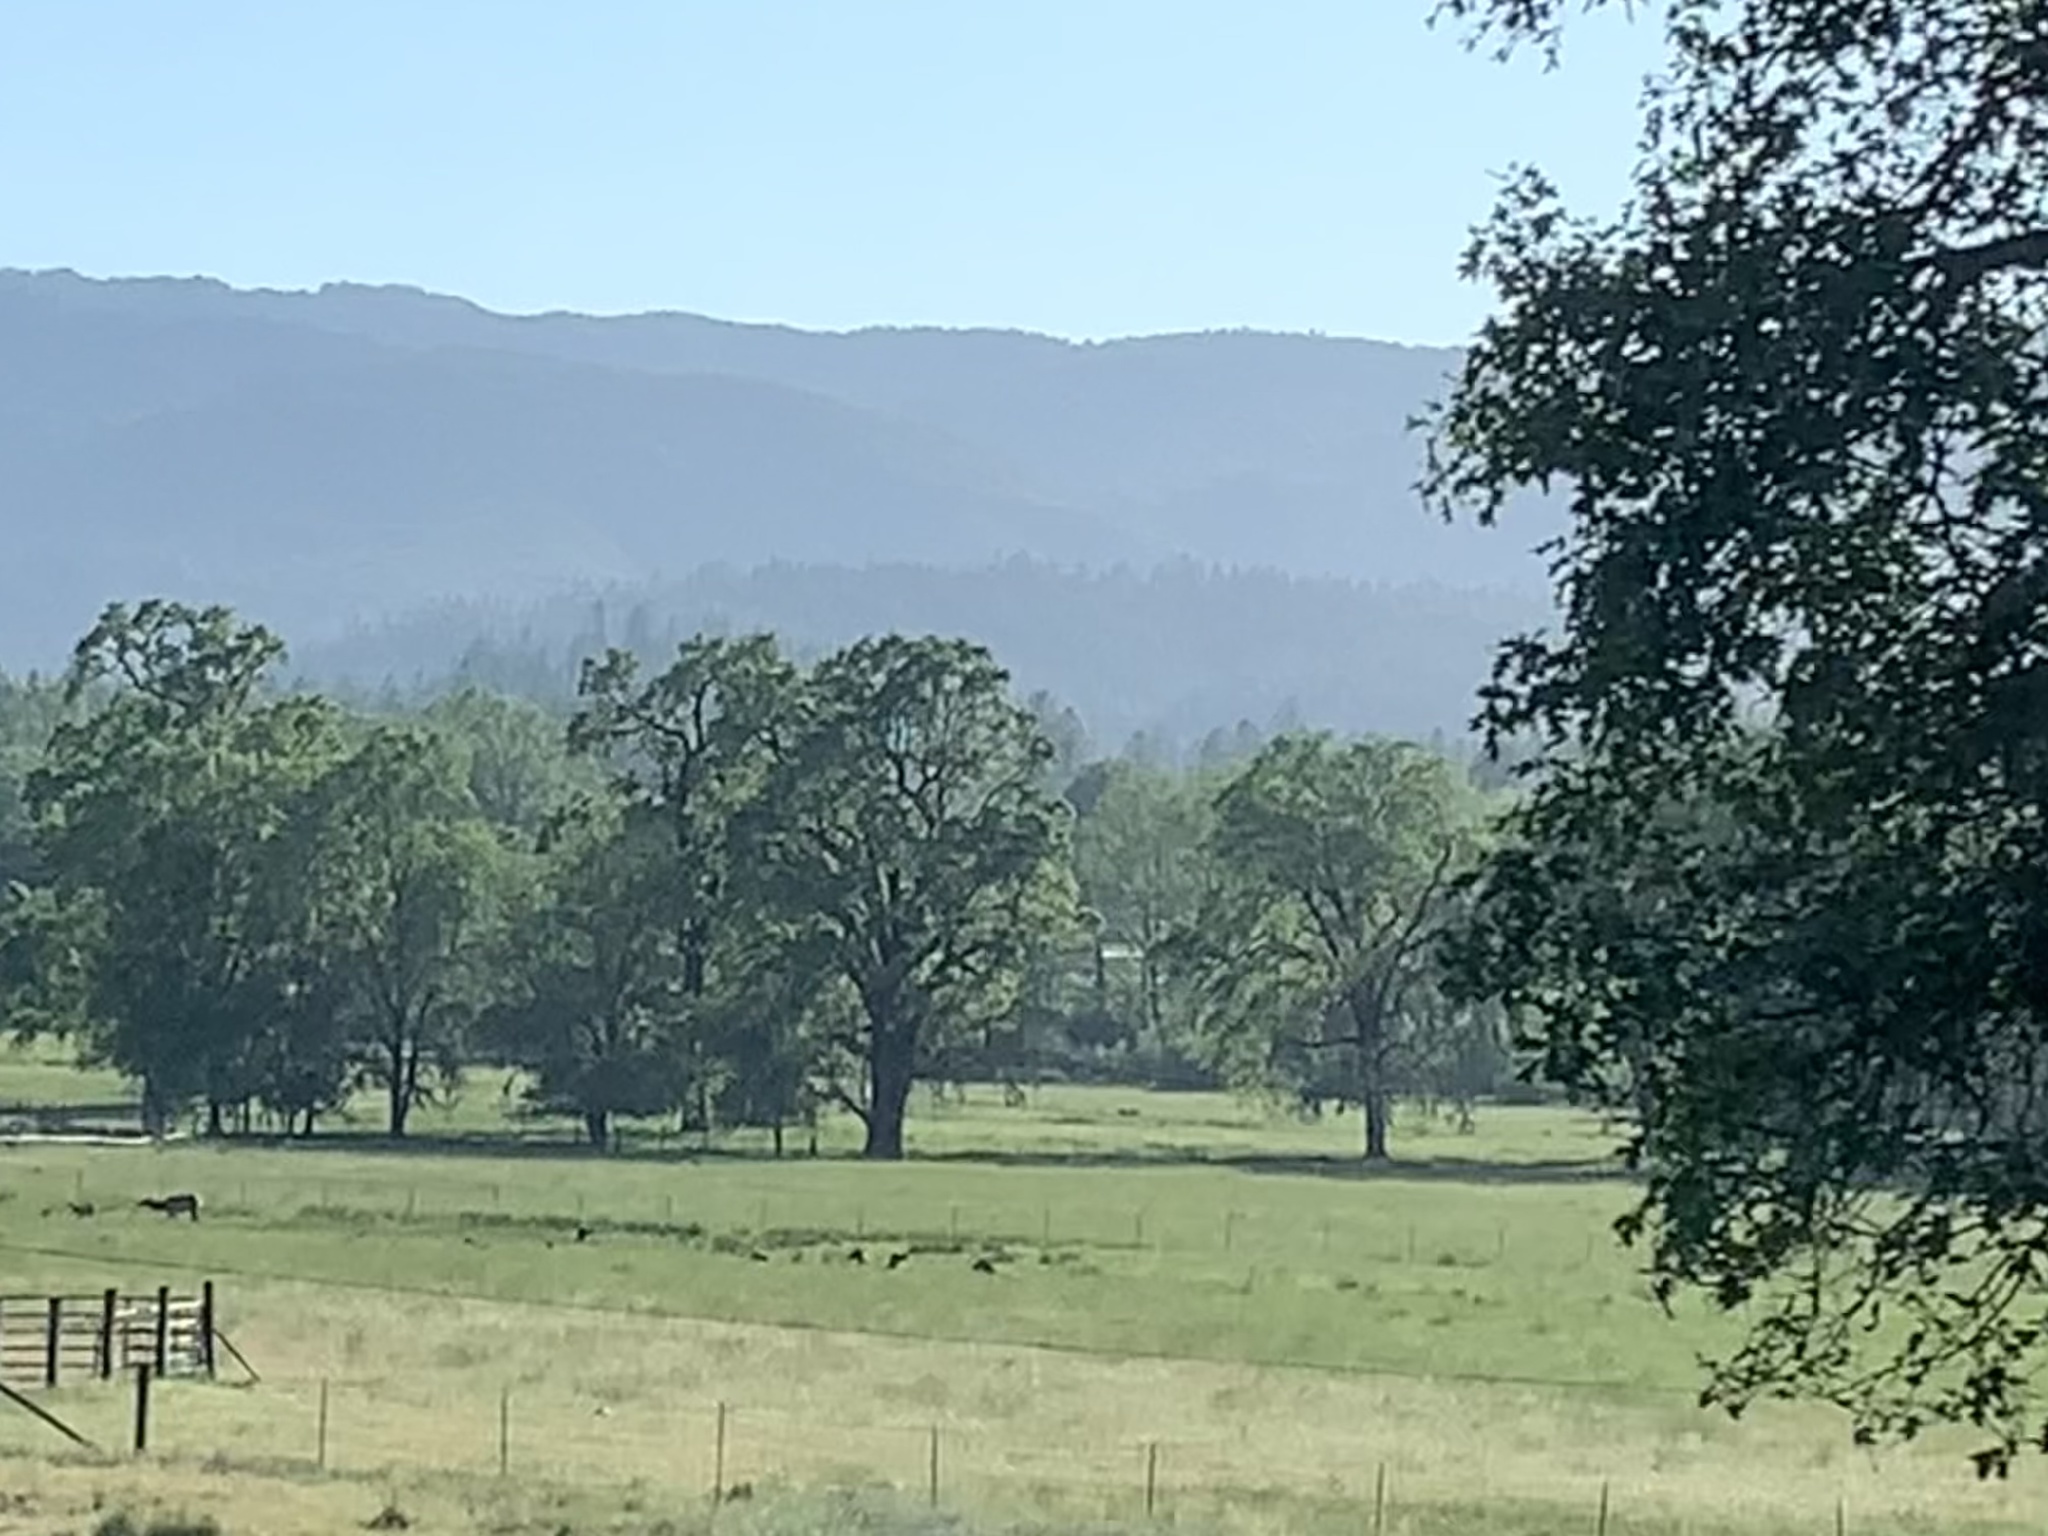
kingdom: Animalia
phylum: Chordata
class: Mammalia
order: Artiodactyla
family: Cervidae
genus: Cervus
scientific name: Cervus elaphus
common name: Red deer
